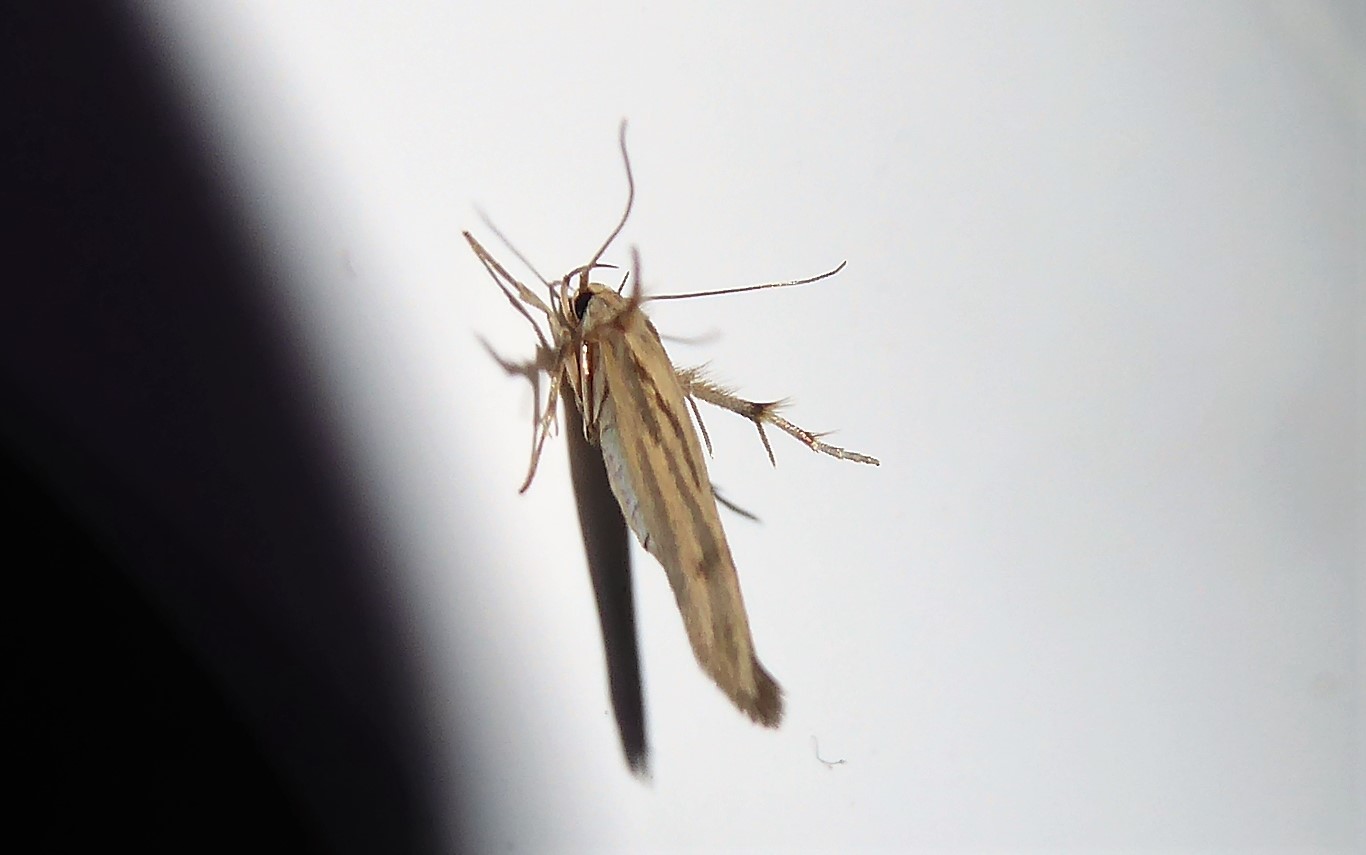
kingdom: Animalia
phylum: Arthropoda
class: Insecta
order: Lepidoptera
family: Stathmopodidae
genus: Stathmopoda
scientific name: Stathmopoda plumbiflua
